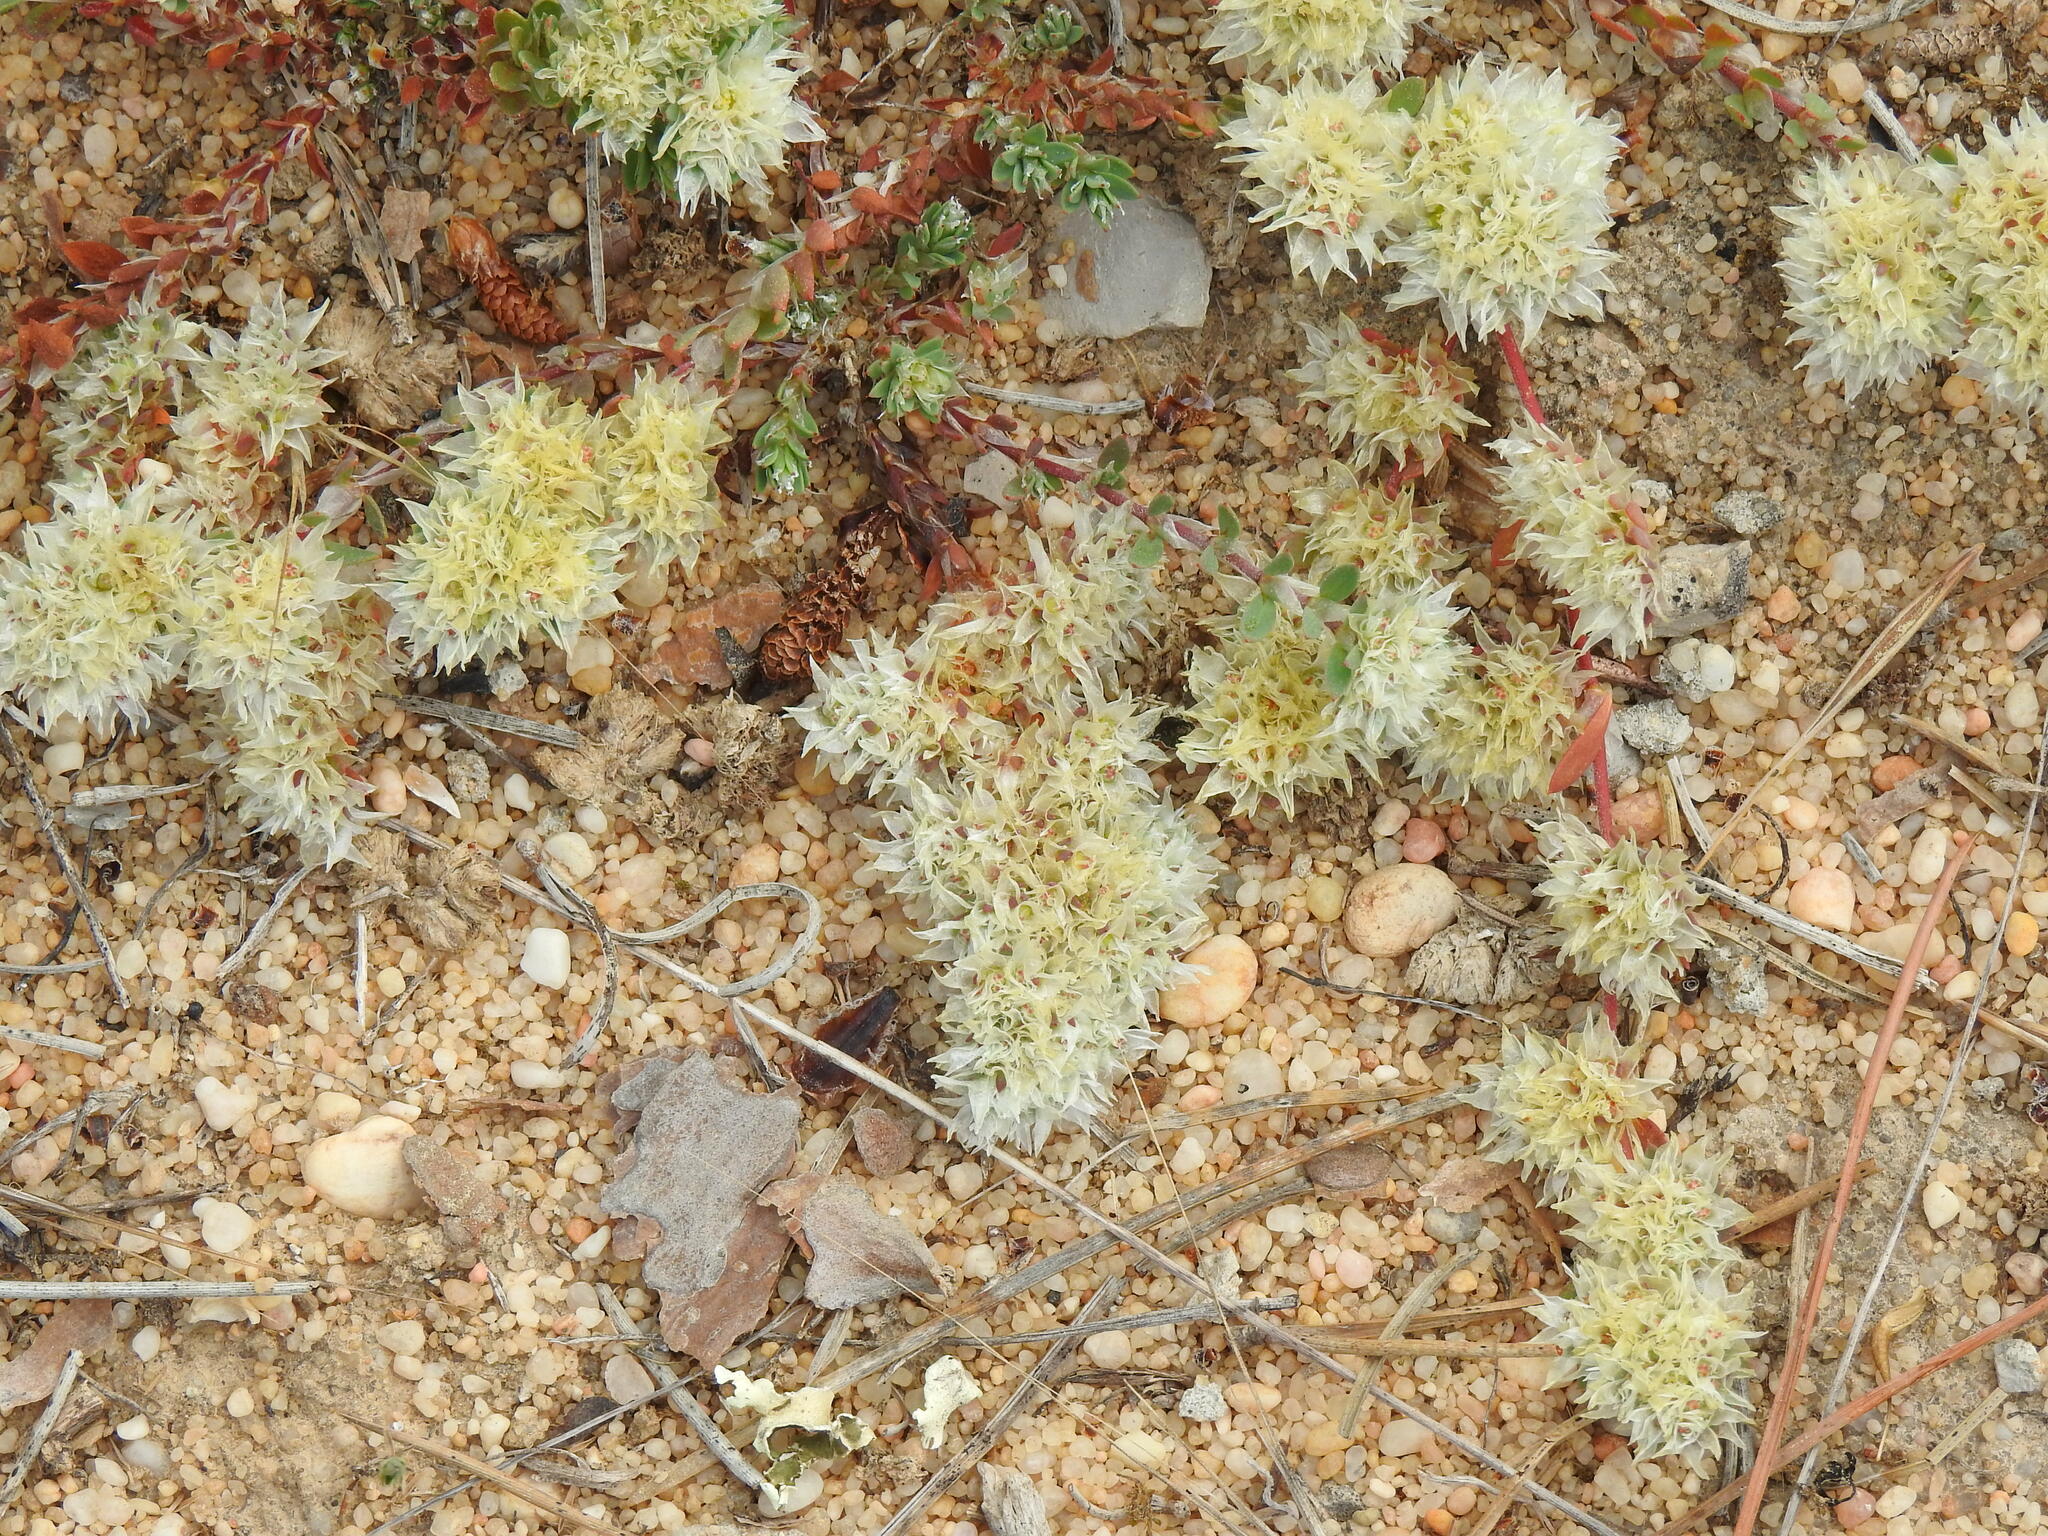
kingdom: Plantae
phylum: Tracheophyta
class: Magnoliopsida
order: Caryophyllales
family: Caryophyllaceae
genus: Paronychia
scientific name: Paronychia argentea
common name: Silver nailroot
